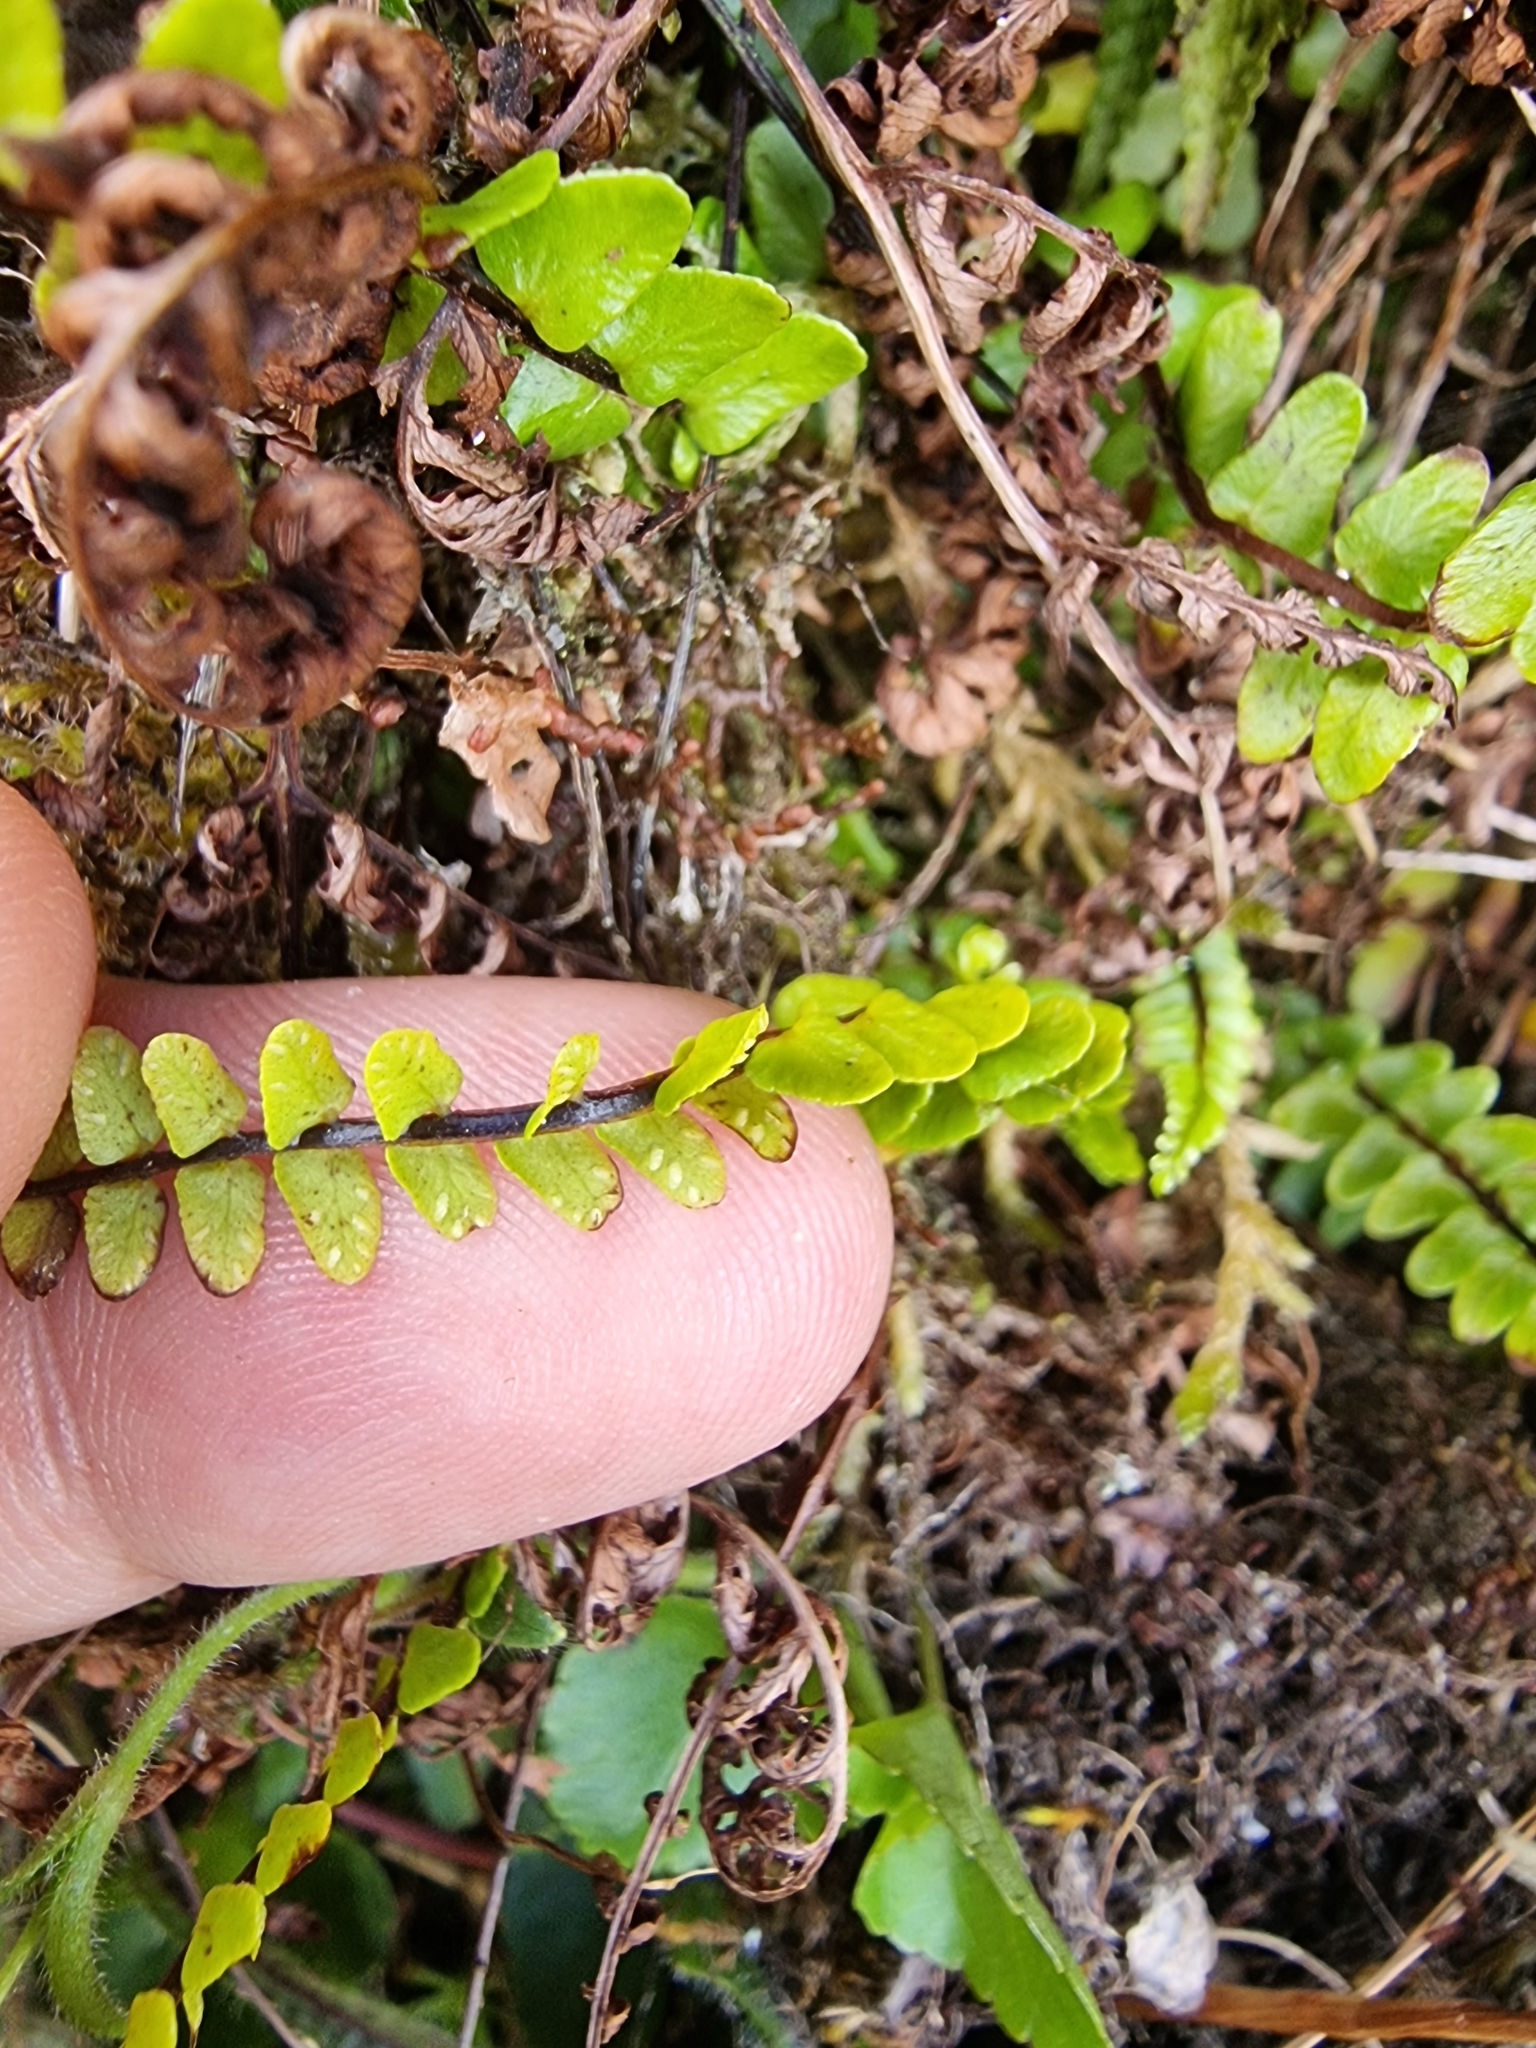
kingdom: Plantae
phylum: Tracheophyta
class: Polypodiopsida
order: Polypodiales
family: Aspleniaceae
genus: Asplenium
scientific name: Asplenium anceps
